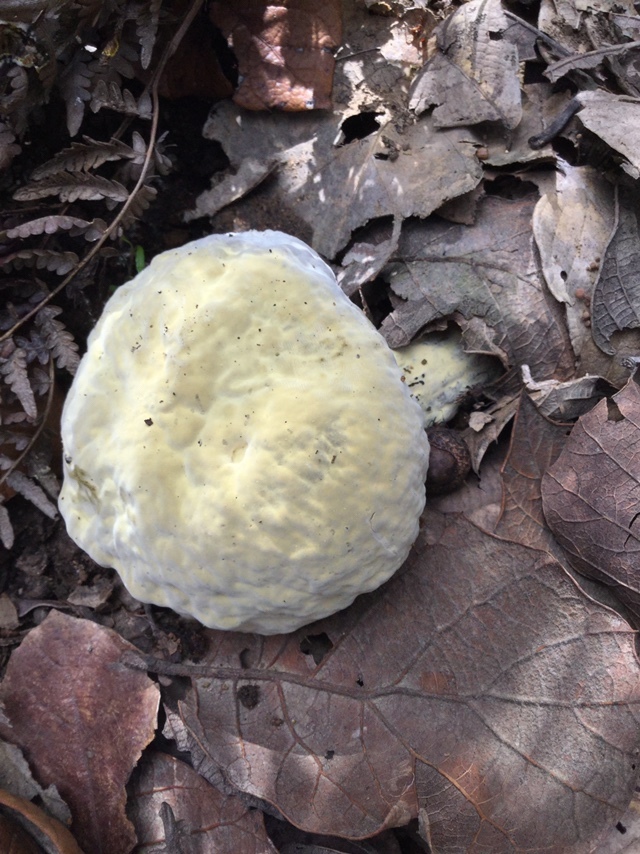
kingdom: Fungi
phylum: Ascomycota
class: Sordariomycetes
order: Hypocreales
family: Hypocreaceae
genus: Hypomyces
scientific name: Hypomyces chrysospermus
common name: Bolete mould
